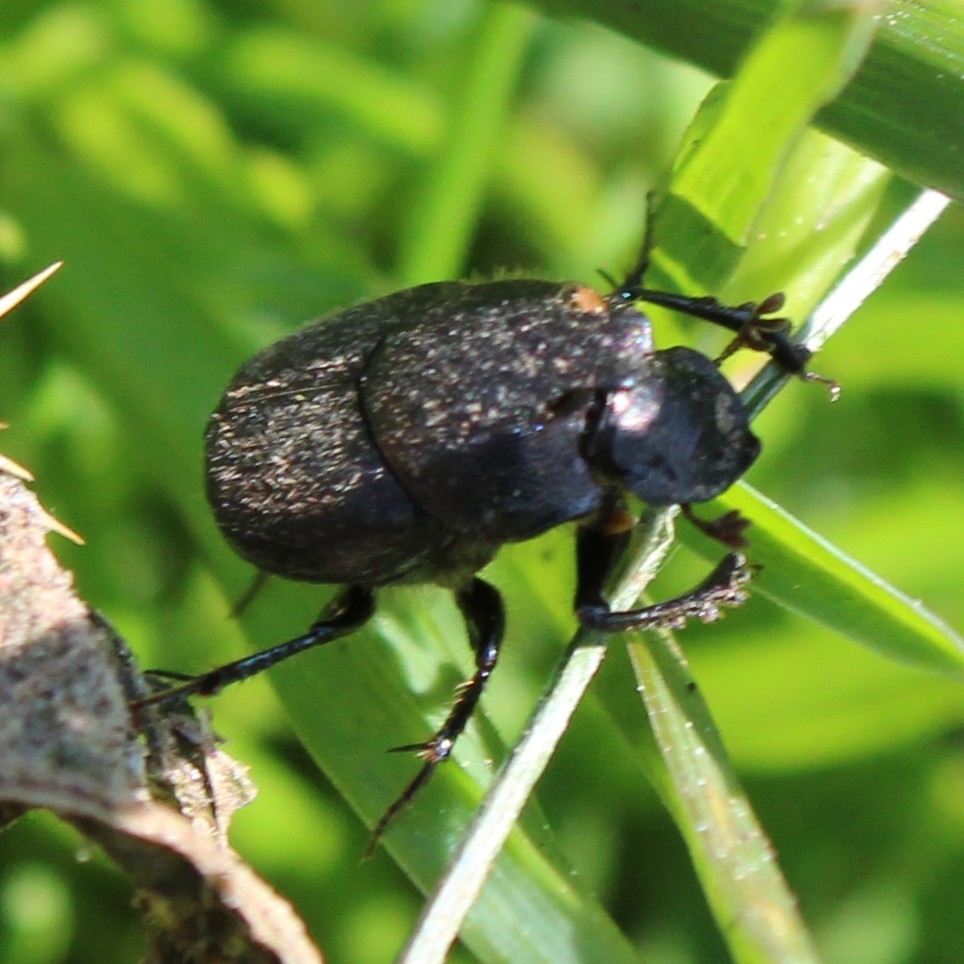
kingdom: Animalia
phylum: Arthropoda
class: Insecta
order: Coleoptera
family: Scarabaeidae
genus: Onthophagus
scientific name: Onthophagus hecate
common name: Scooped scarab
